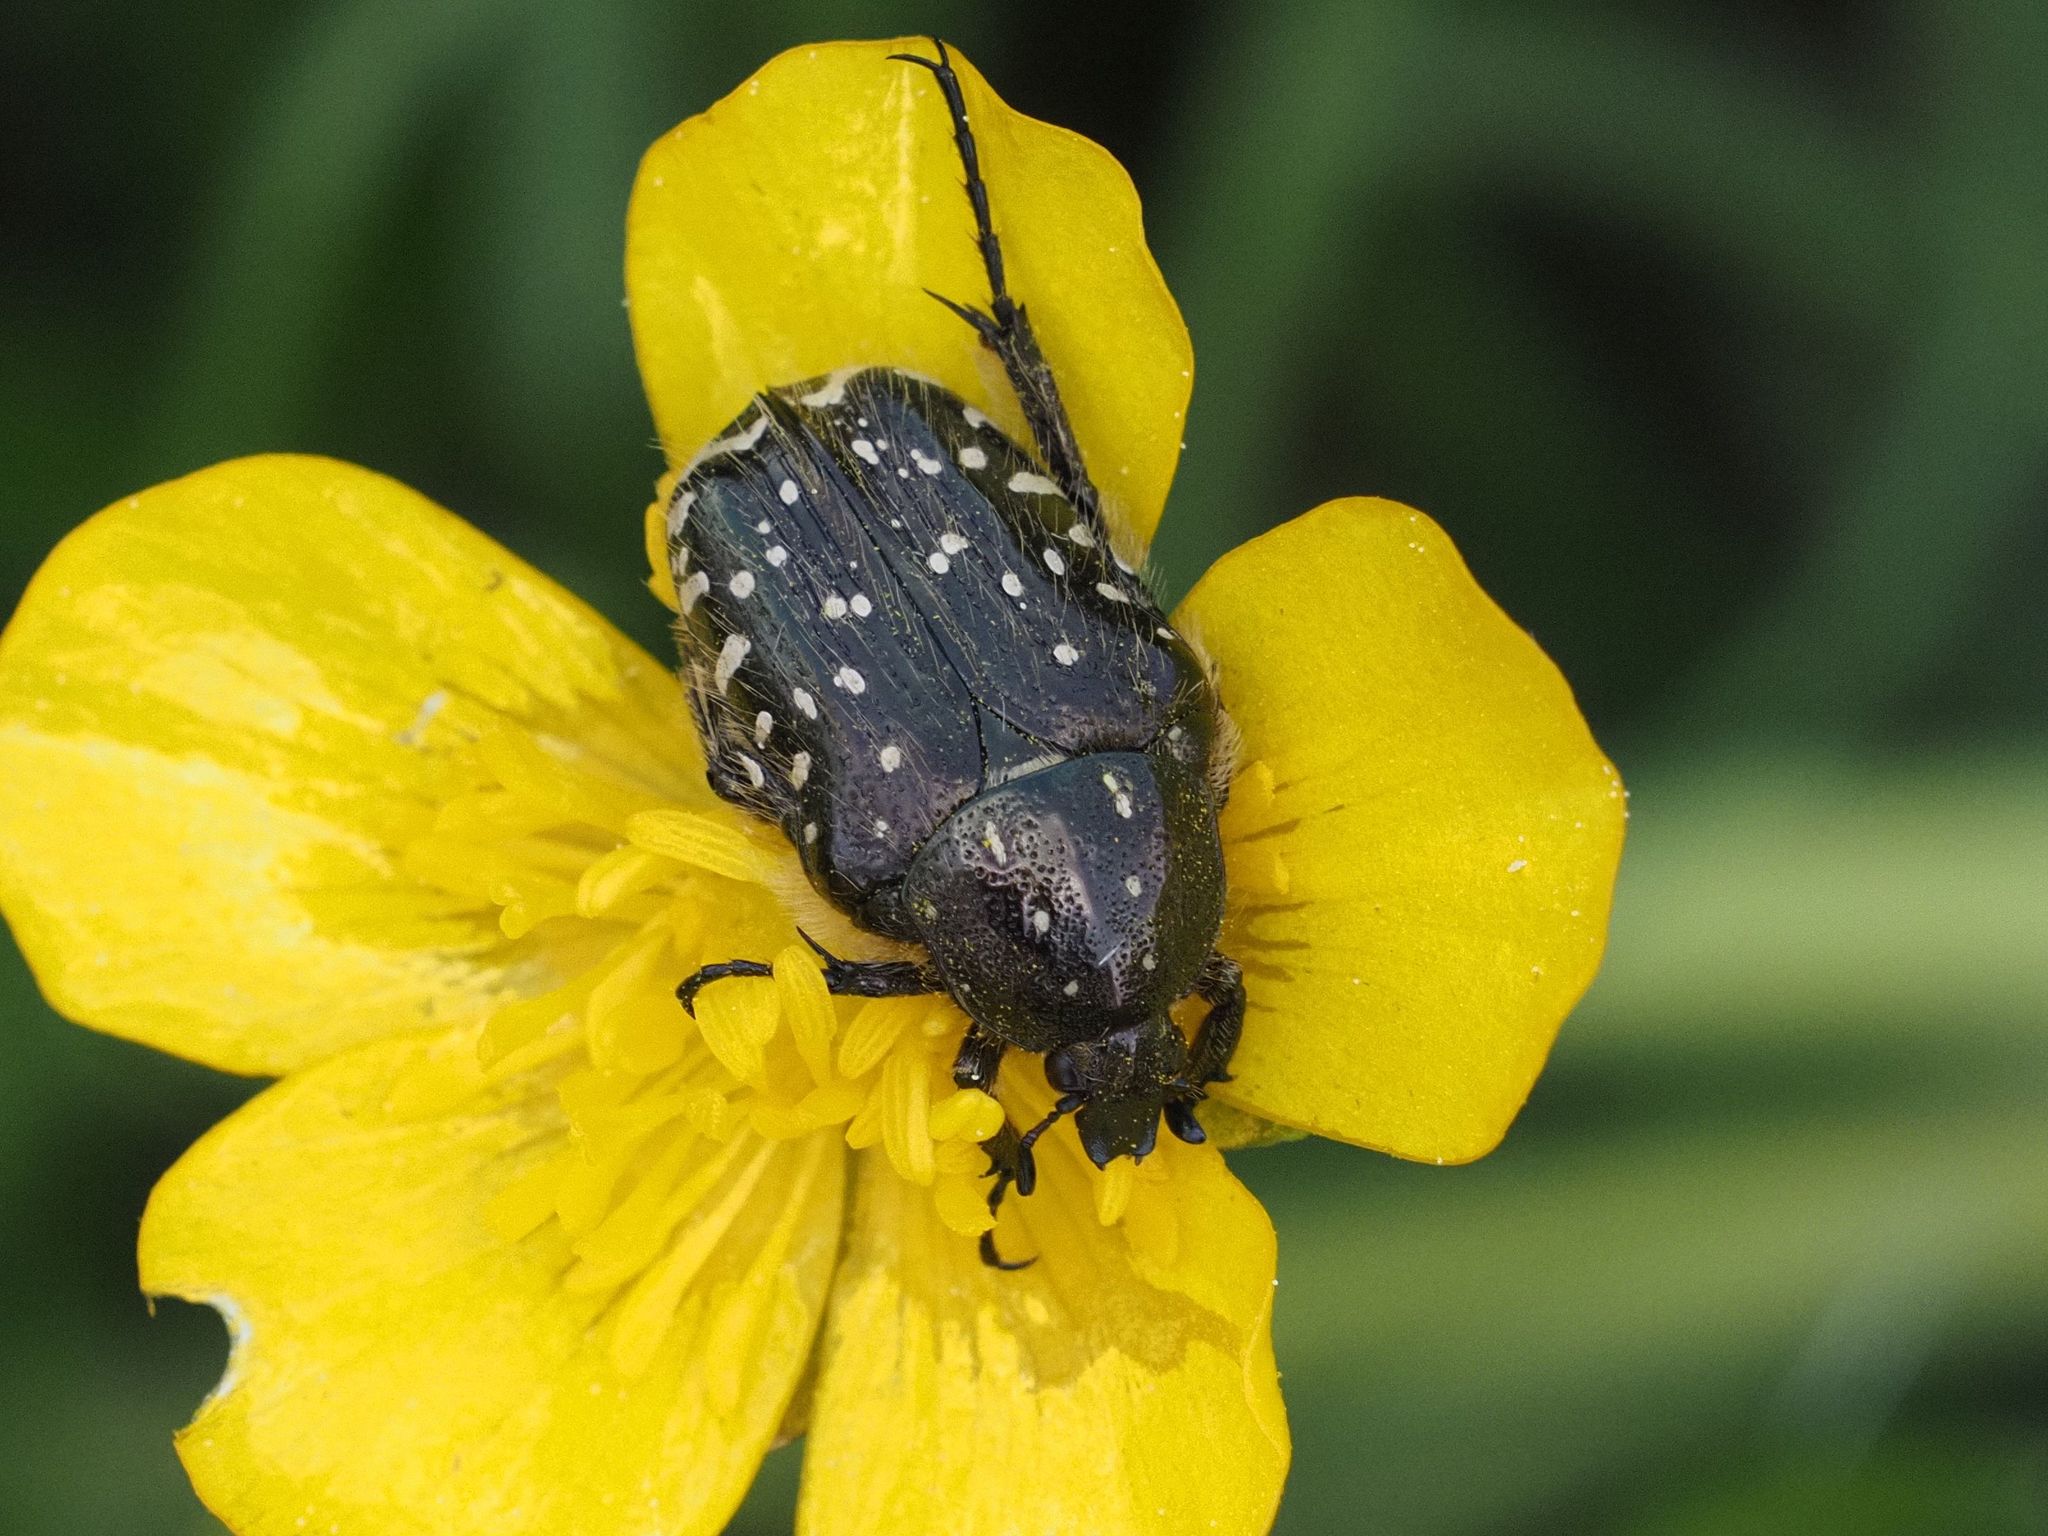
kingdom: Animalia
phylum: Arthropoda
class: Insecta
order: Coleoptera
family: Scarabaeidae
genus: Oxythyrea
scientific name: Oxythyrea funesta
